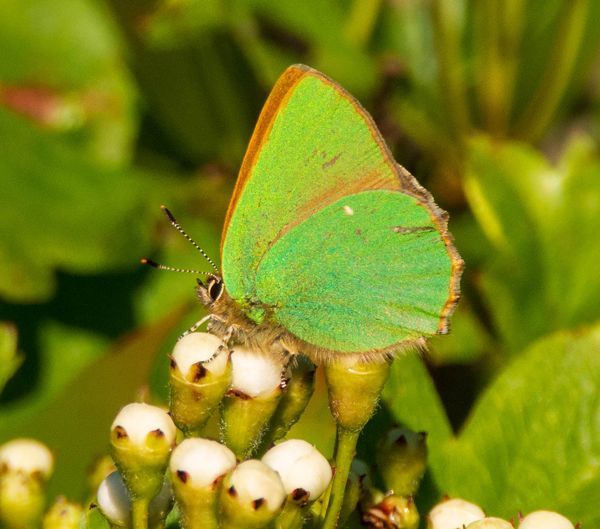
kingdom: Animalia
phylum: Arthropoda
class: Insecta
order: Lepidoptera
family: Lycaenidae
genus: Callophrys
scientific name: Callophrys rubi
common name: Green hairstreak
